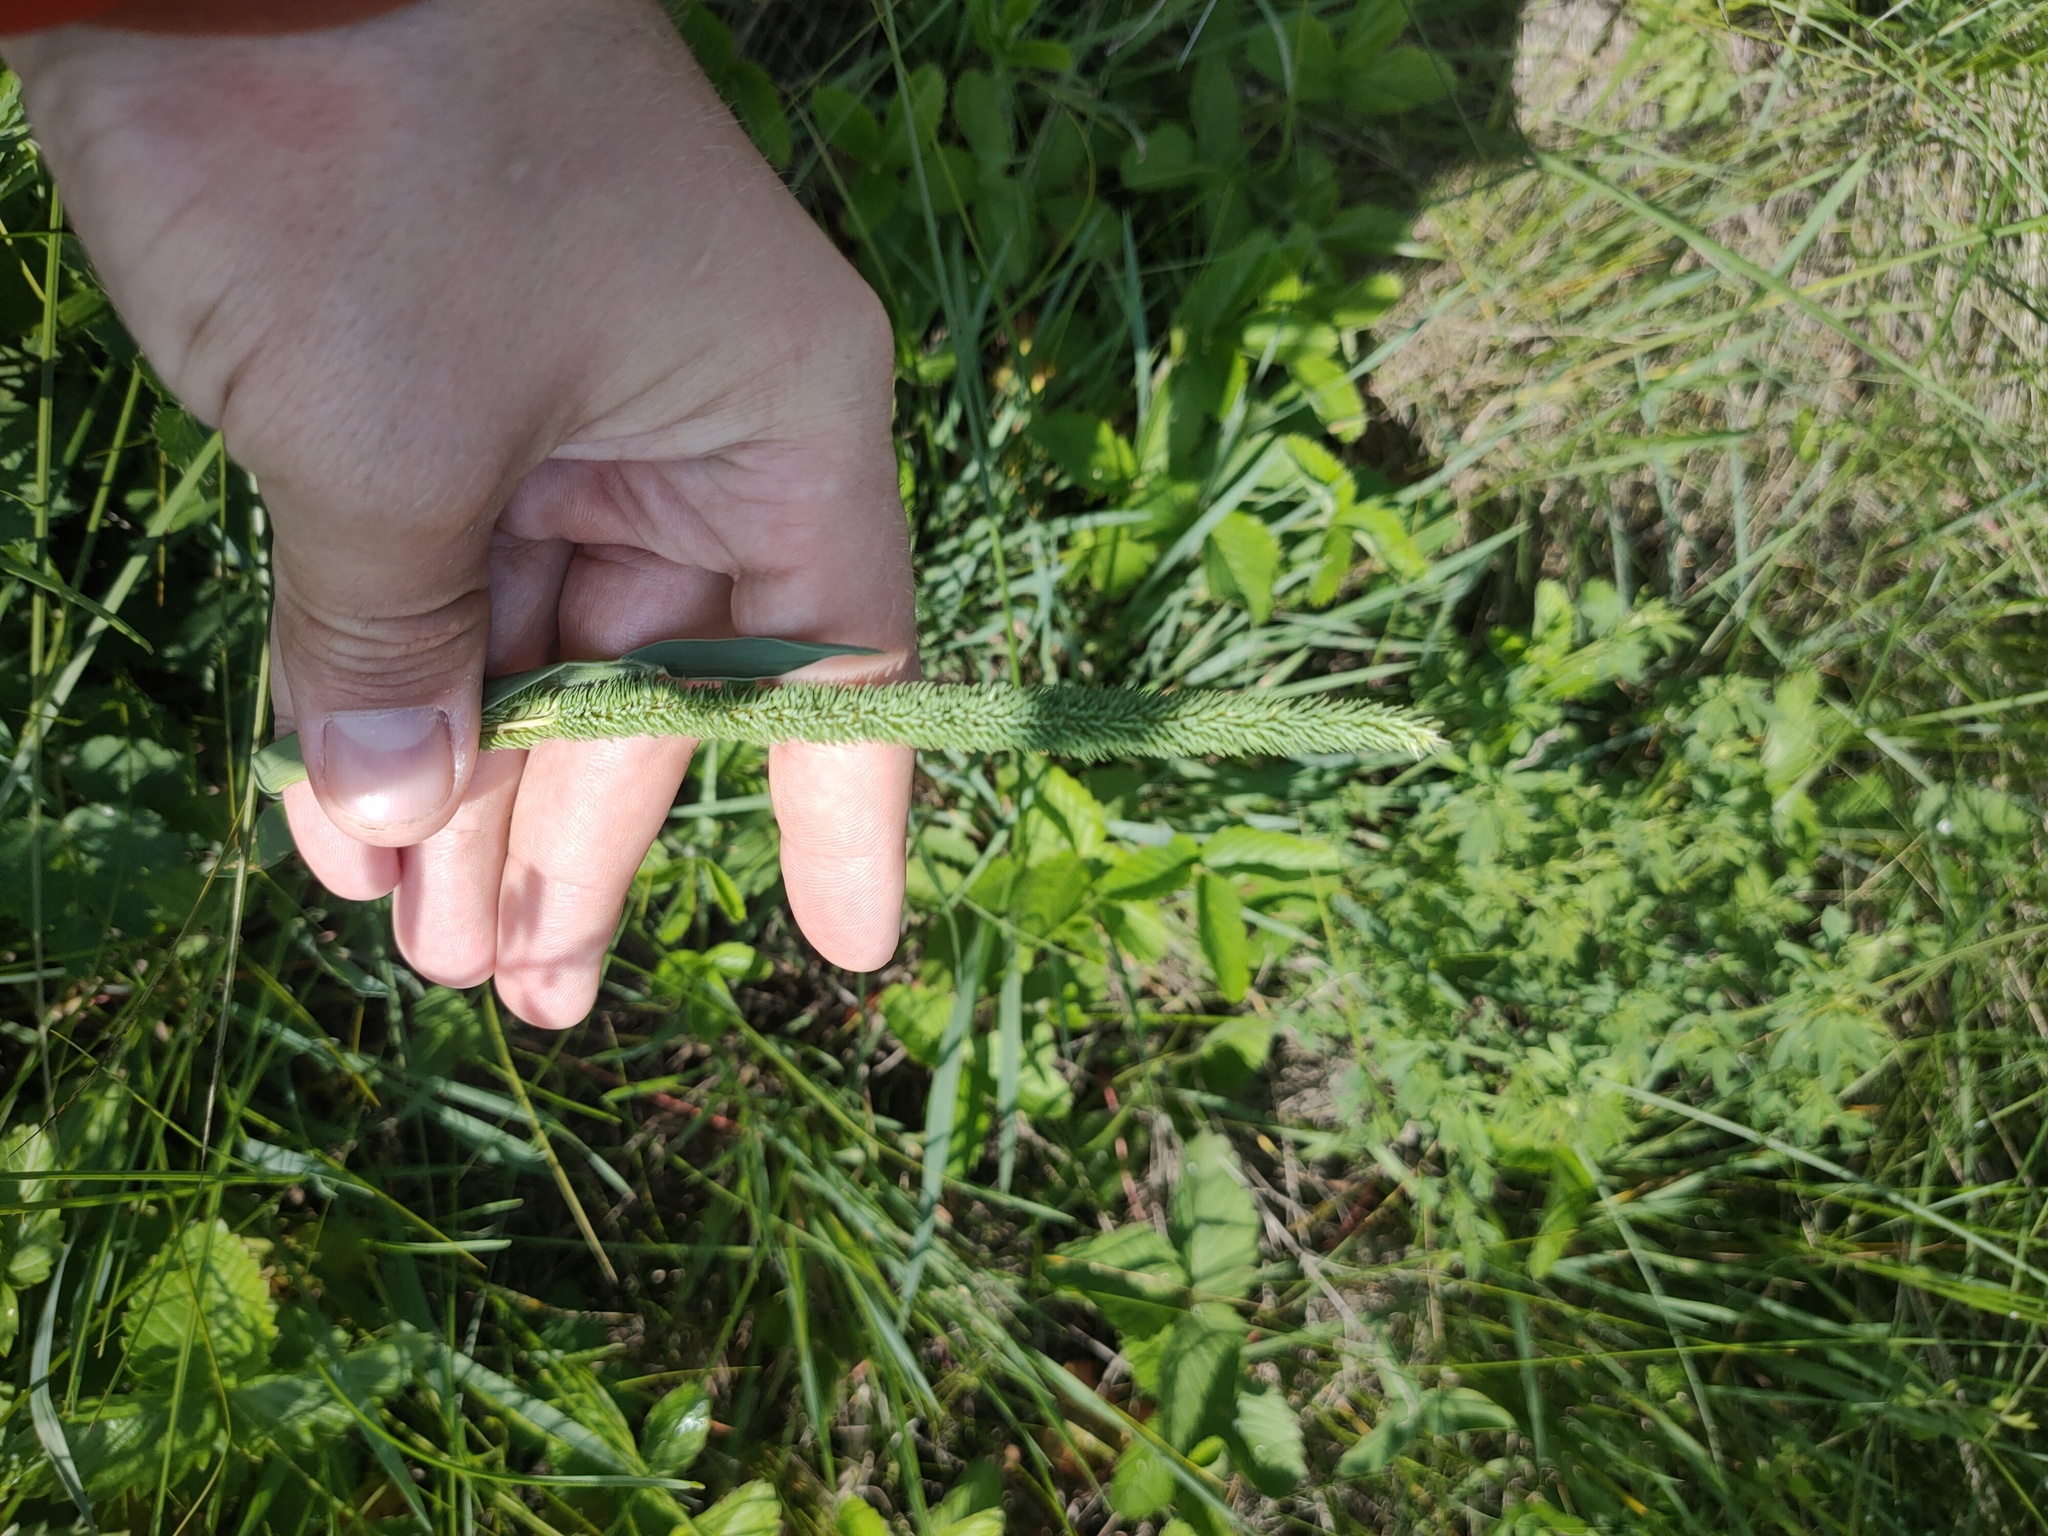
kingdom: Plantae
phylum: Tracheophyta
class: Liliopsida
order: Poales
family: Poaceae
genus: Phleum
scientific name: Phleum phleoides
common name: Purple-stem cat's-tail
